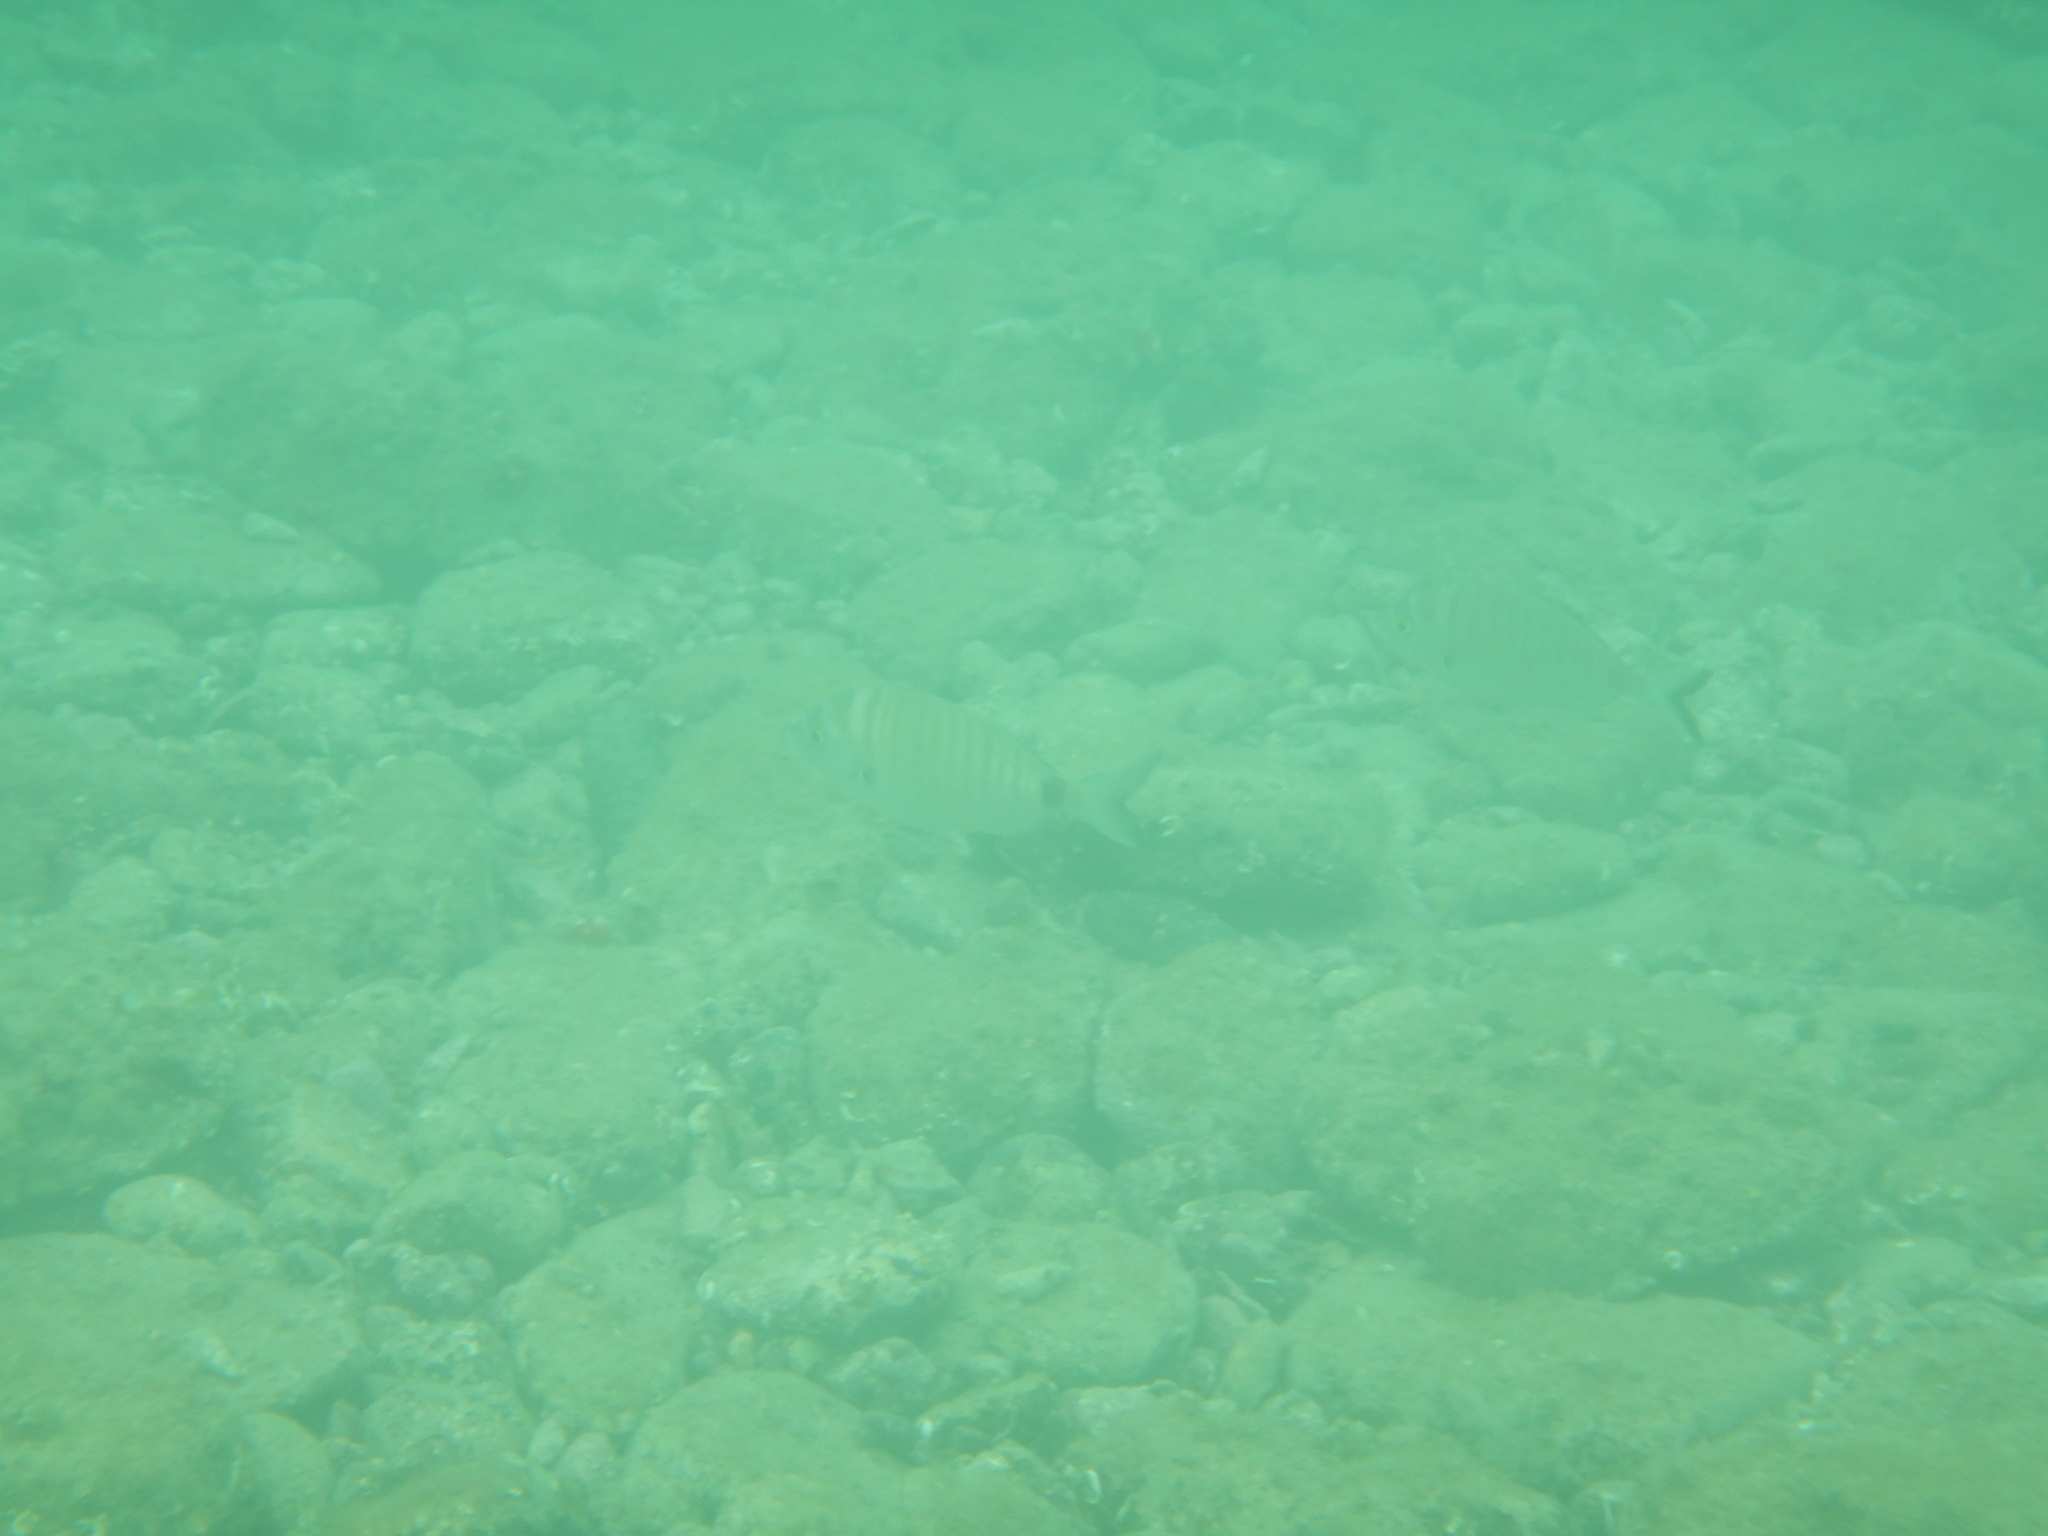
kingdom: Animalia
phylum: Chordata
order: Perciformes
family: Sparidae
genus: Diplodus
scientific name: Diplodus puntazzo
